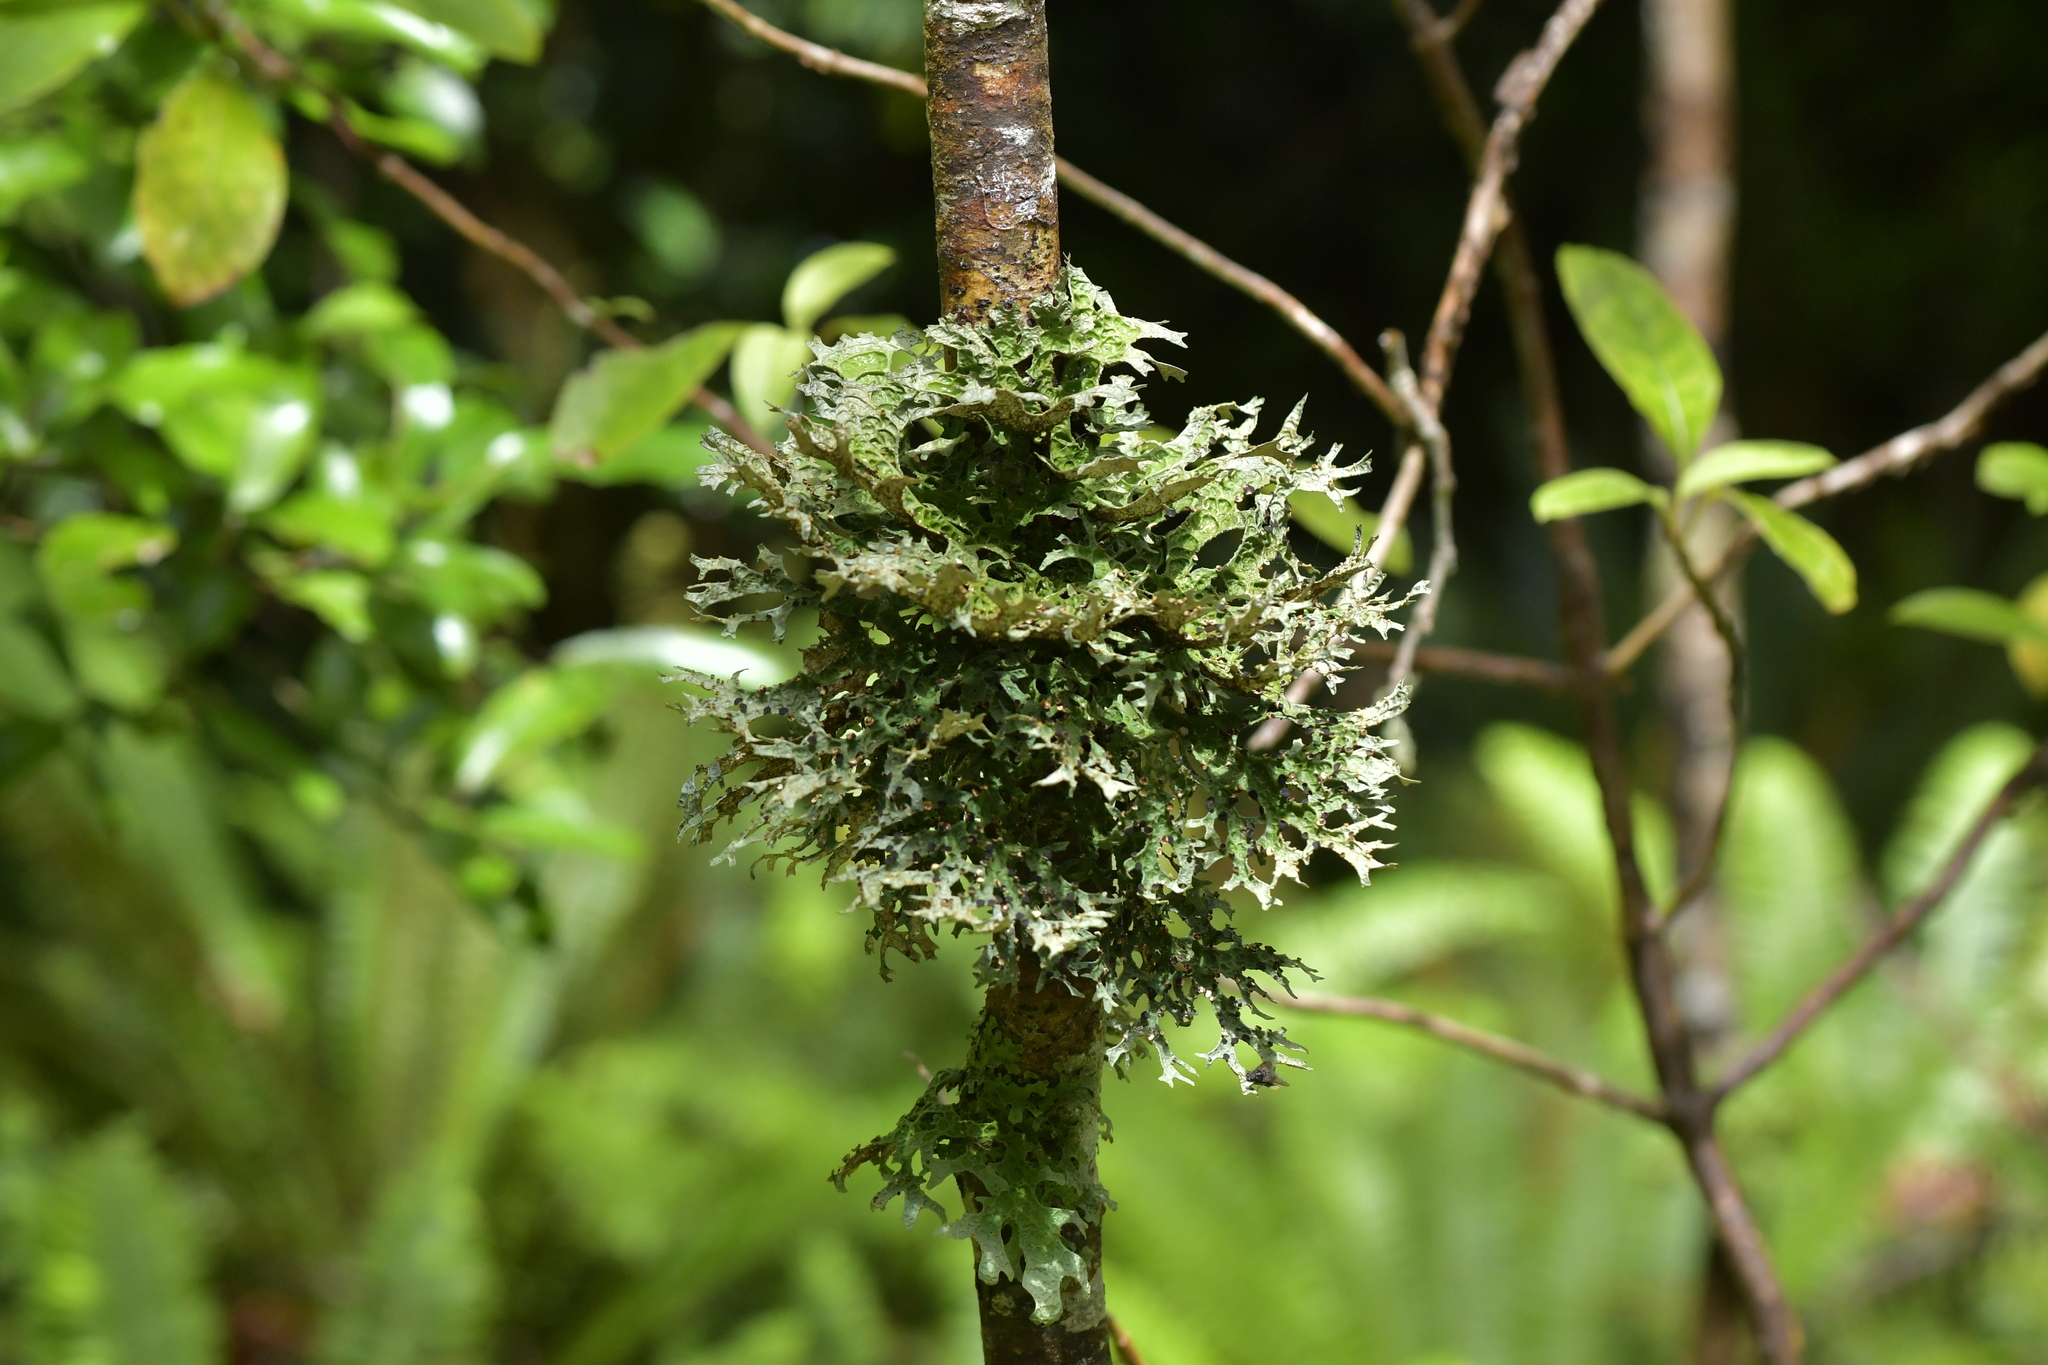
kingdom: Fungi
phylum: Ascomycota
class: Lecanoromycetes
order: Peltigerales
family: Lobariaceae
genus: Pseudocyphellaria
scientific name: Pseudocyphellaria faveolata
